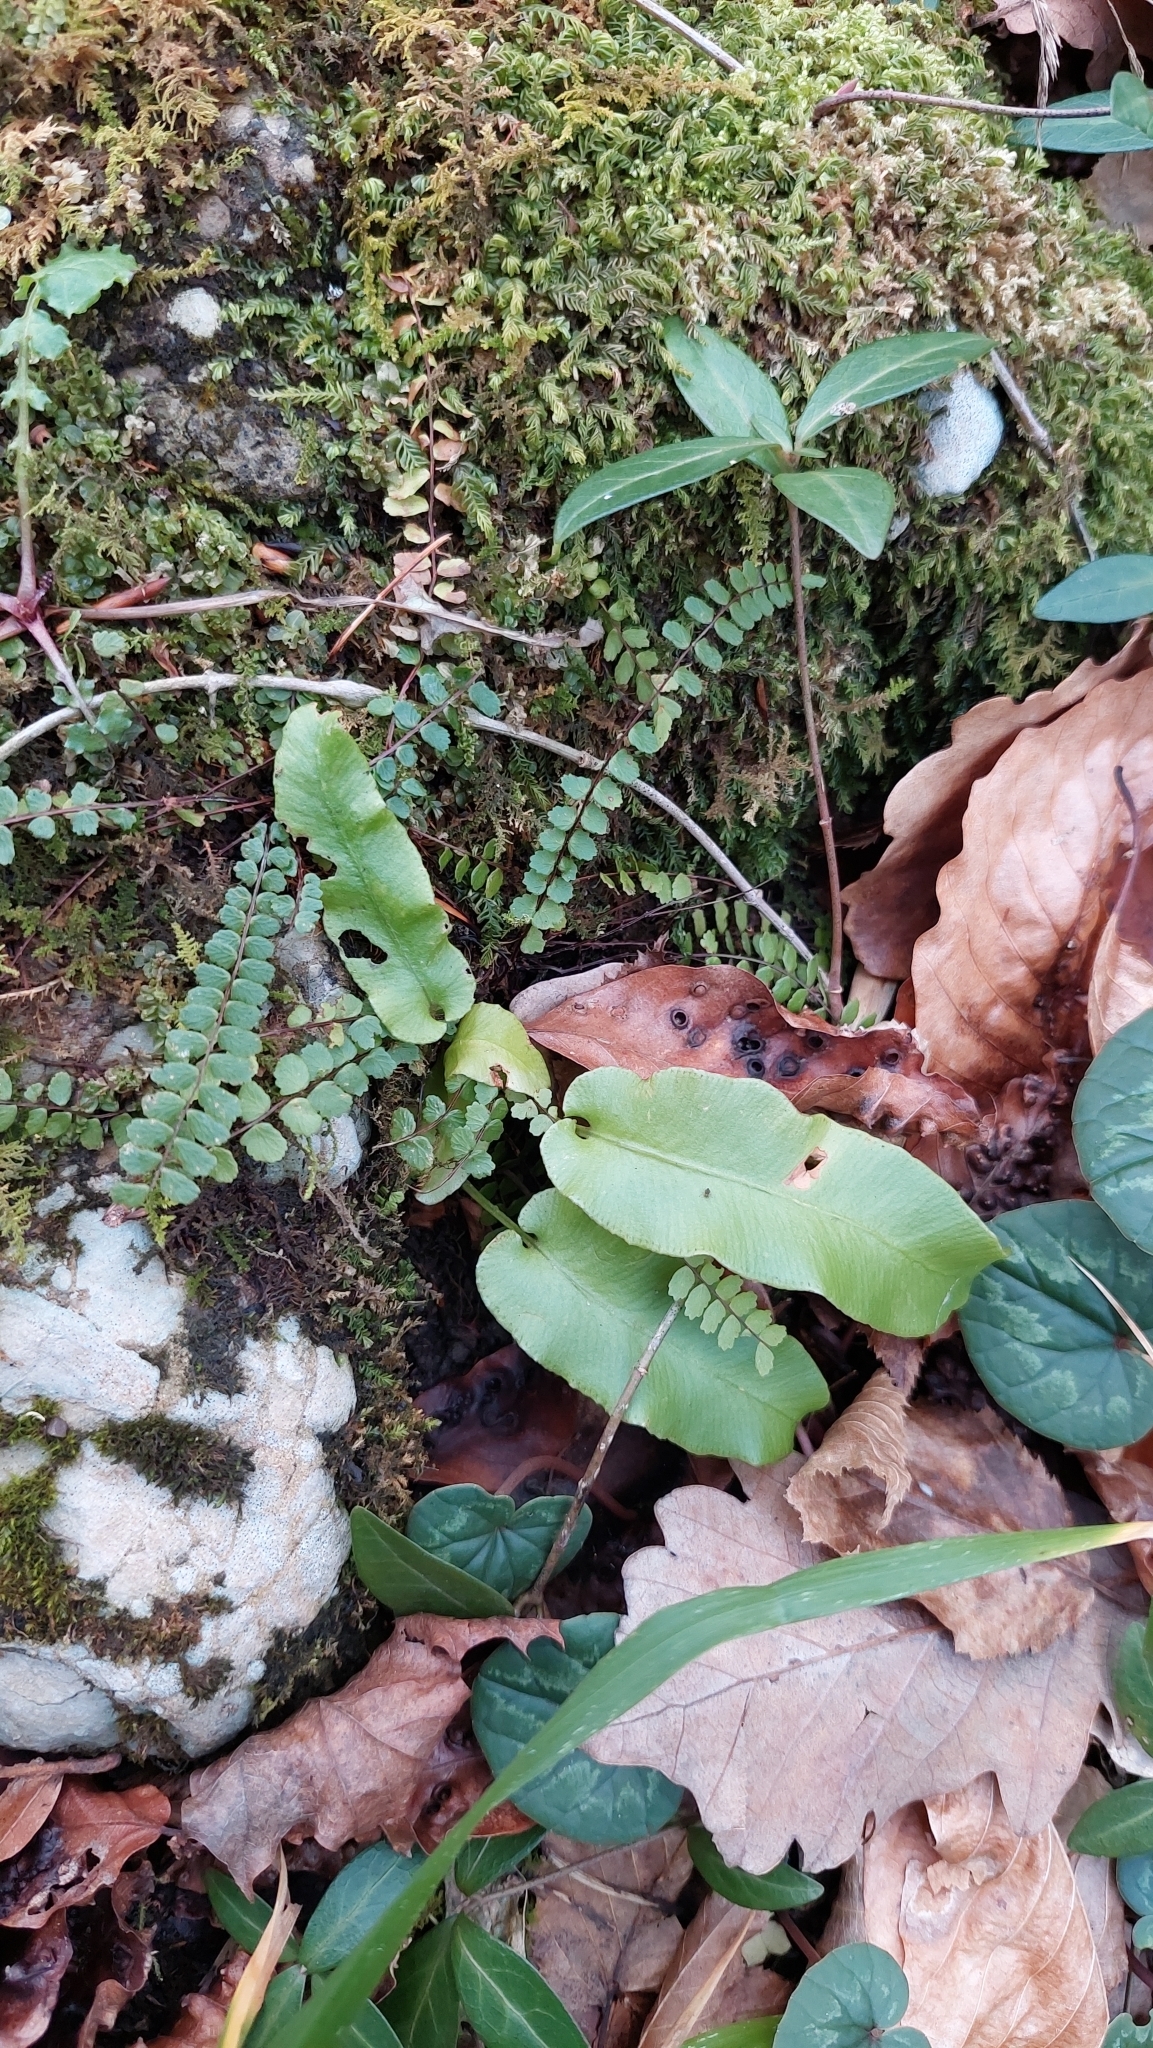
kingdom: Plantae
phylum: Tracheophyta
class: Polypodiopsida
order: Polypodiales
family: Aspleniaceae
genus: Asplenium
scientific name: Asplenium trichomanes
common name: Maidenhair spleenwort
